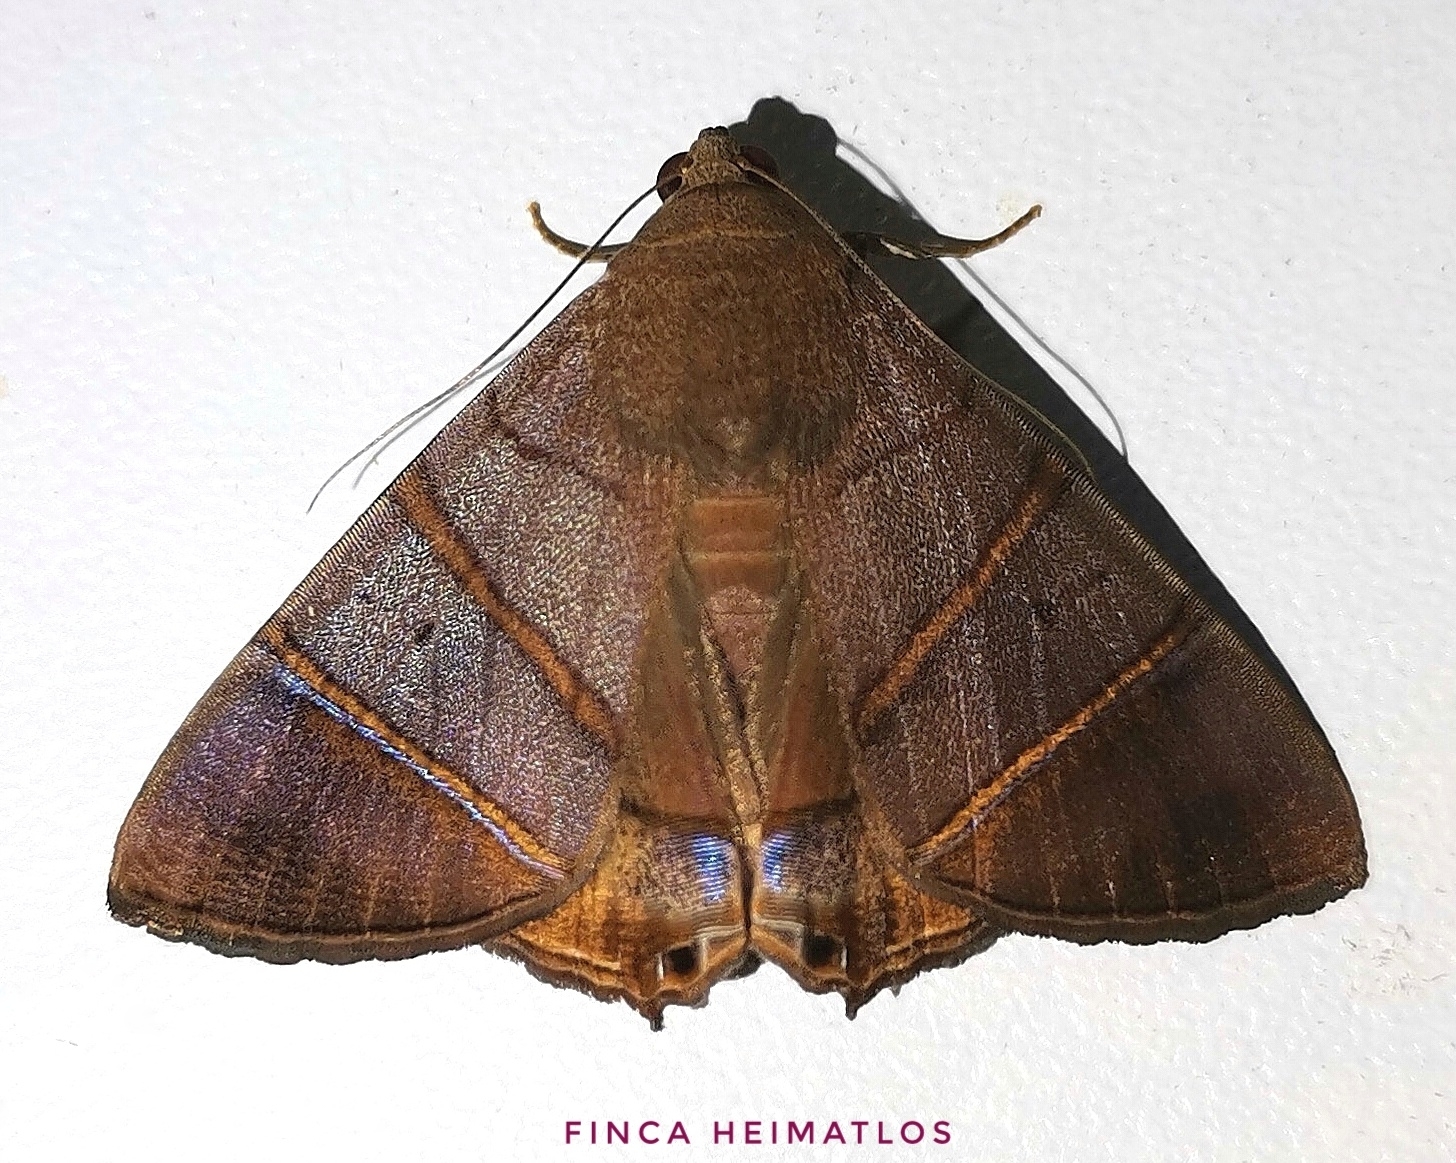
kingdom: Animalia
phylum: Arthropoda
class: Insecta
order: Lepidoptera
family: Erebidae
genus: Eulepidotis
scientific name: Eulepidotis superior
